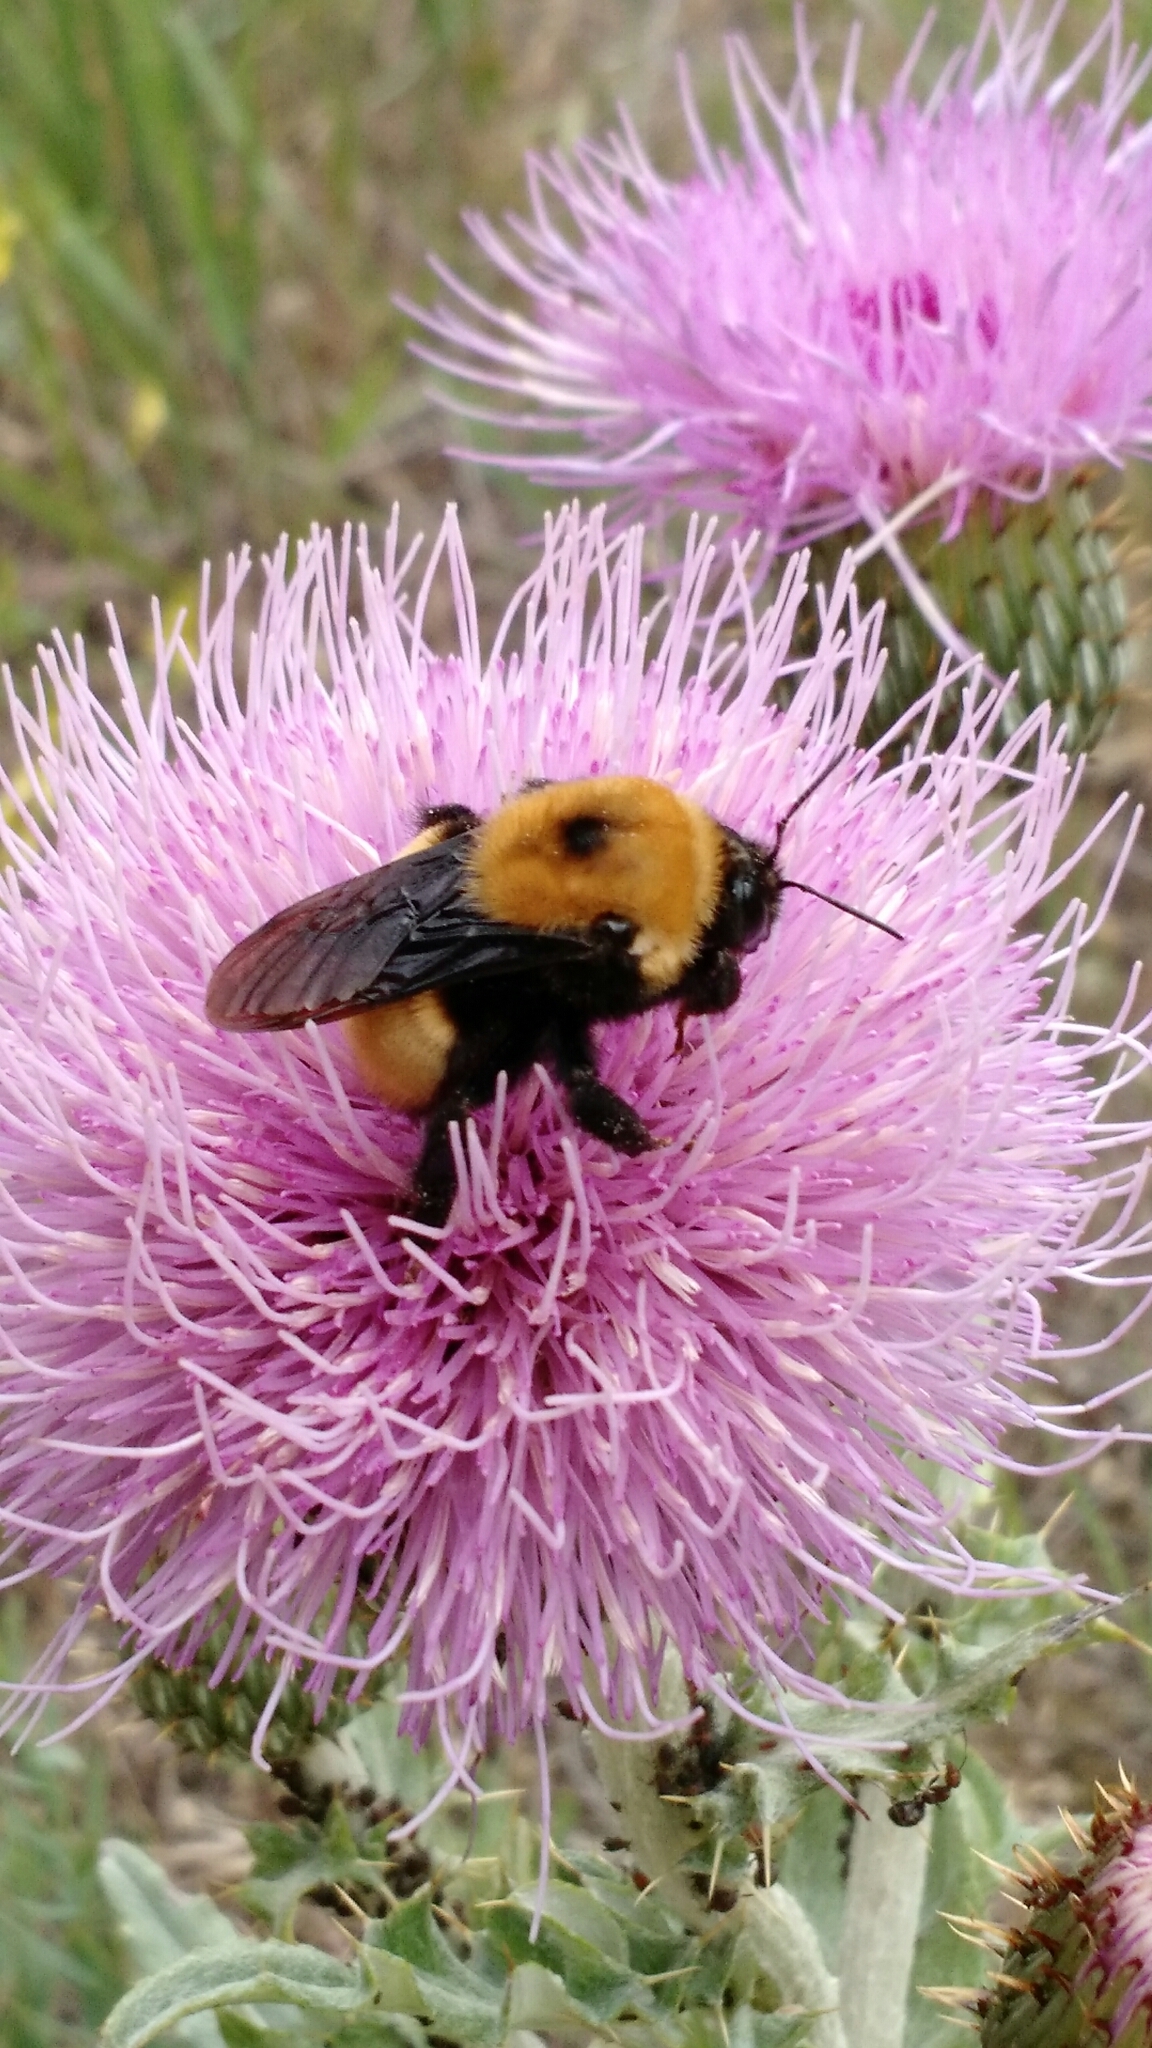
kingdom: Animalia
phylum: Arthropoda
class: Insecta
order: Hymenoptera
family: Apidae
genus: Bombus
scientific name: Bombus nevadensis
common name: Nevada bumble bee
